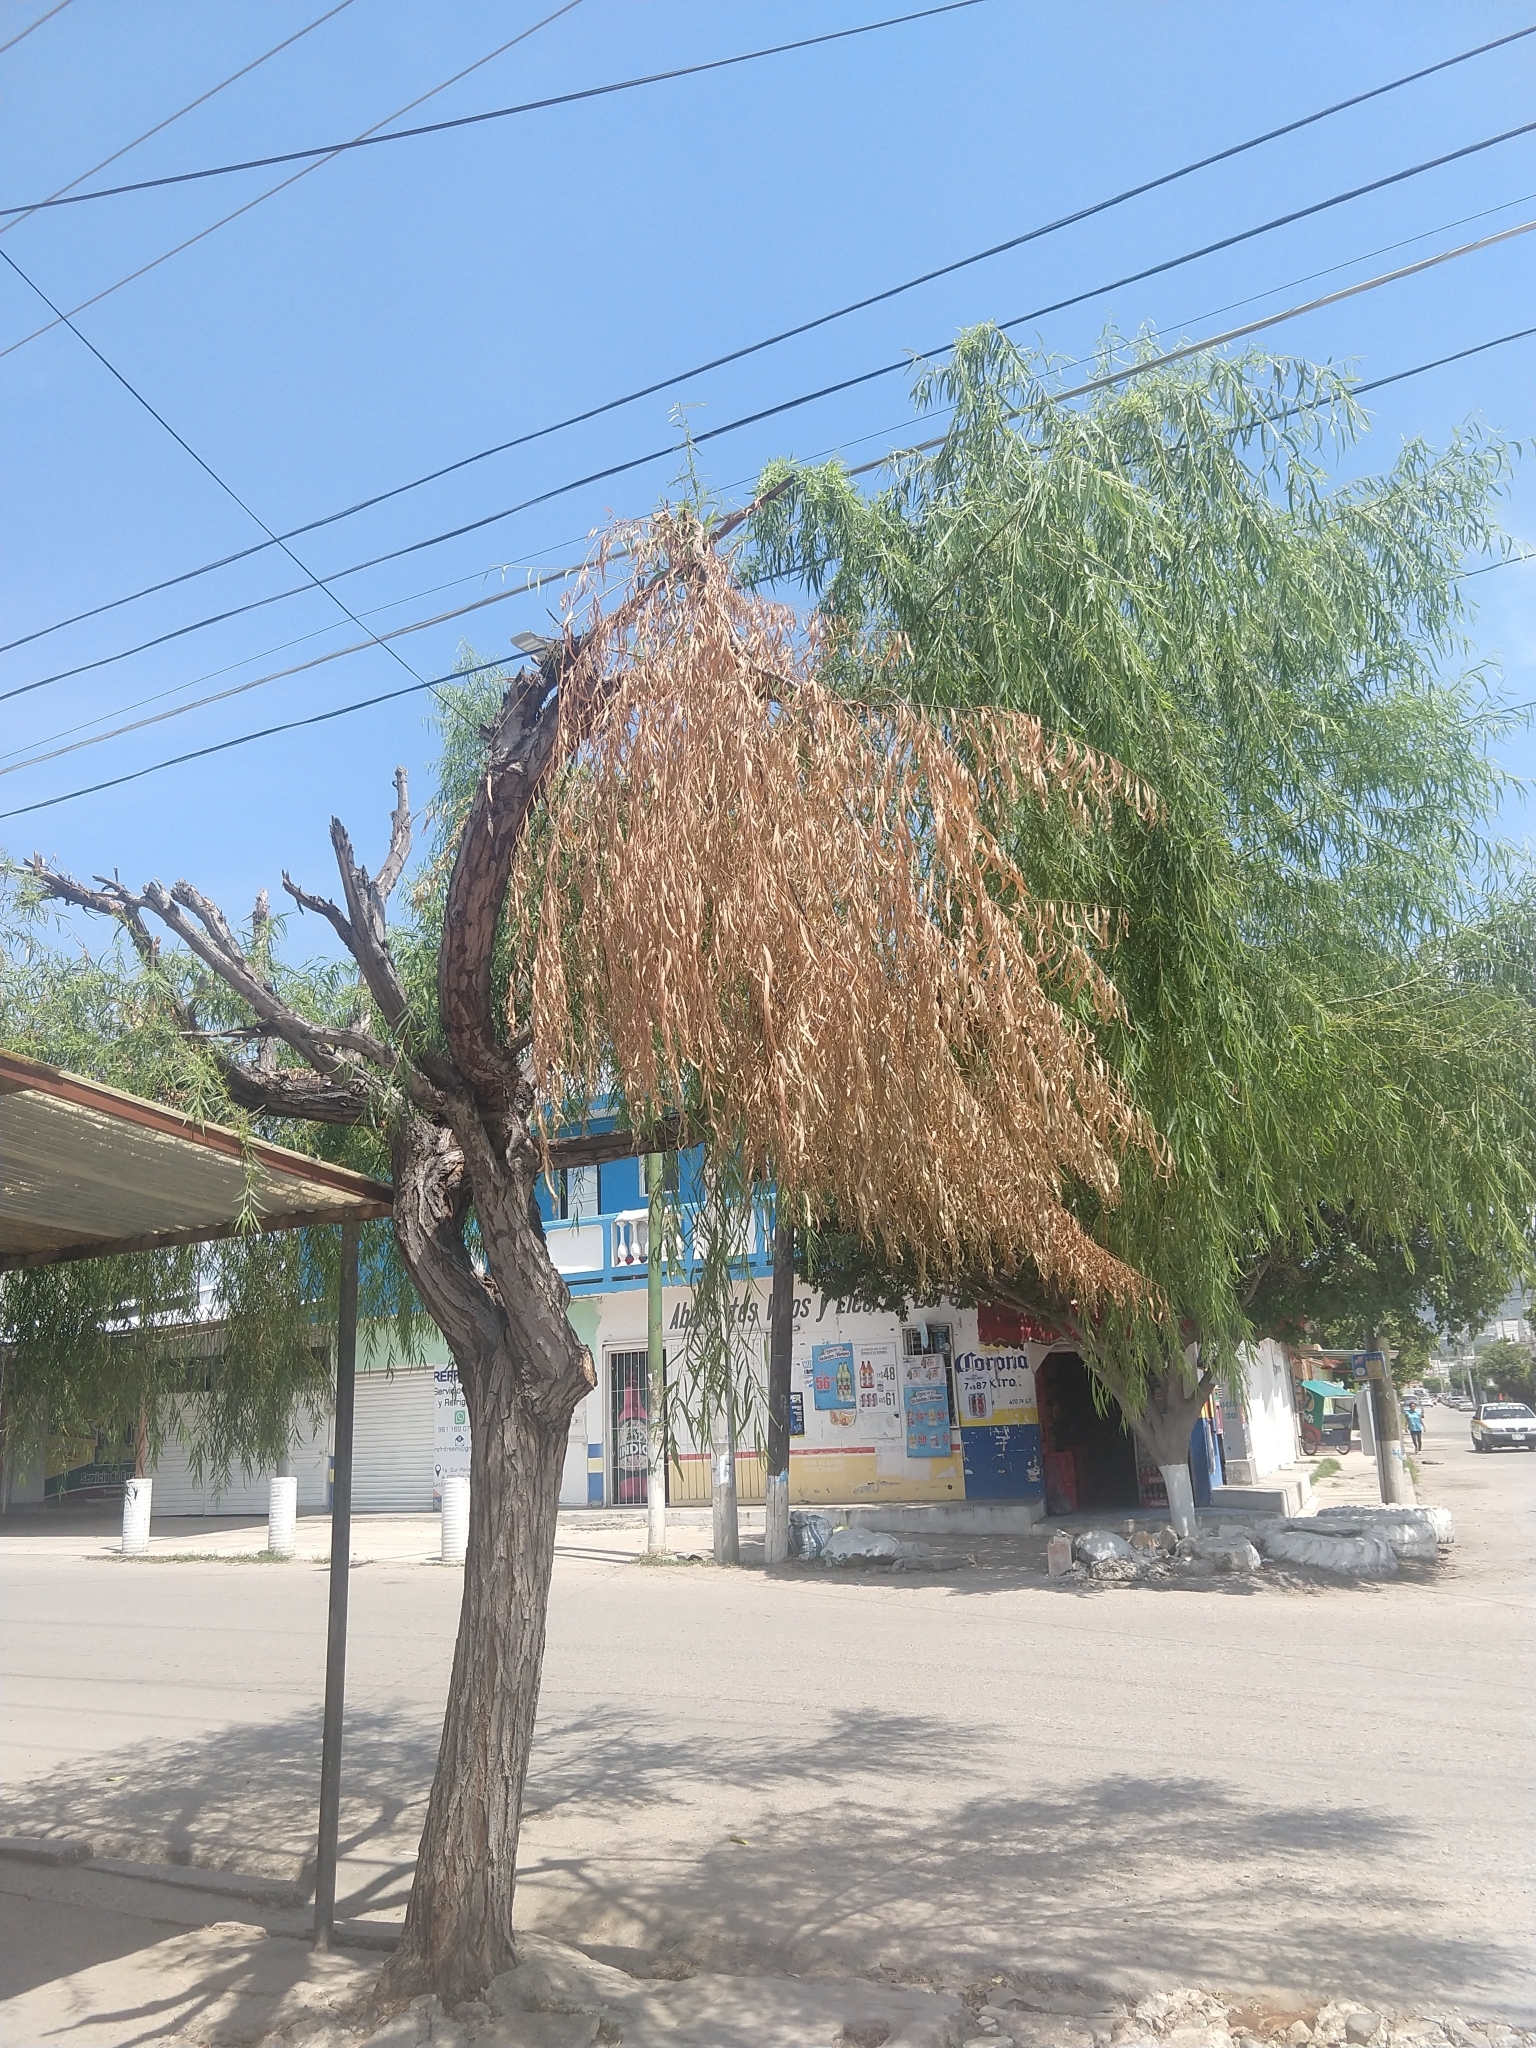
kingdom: Plantae
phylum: Tracheophyta
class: Magnoliopsida
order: Malpighiales
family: Salicaceae
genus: Salix
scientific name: Salix humboldtiana
